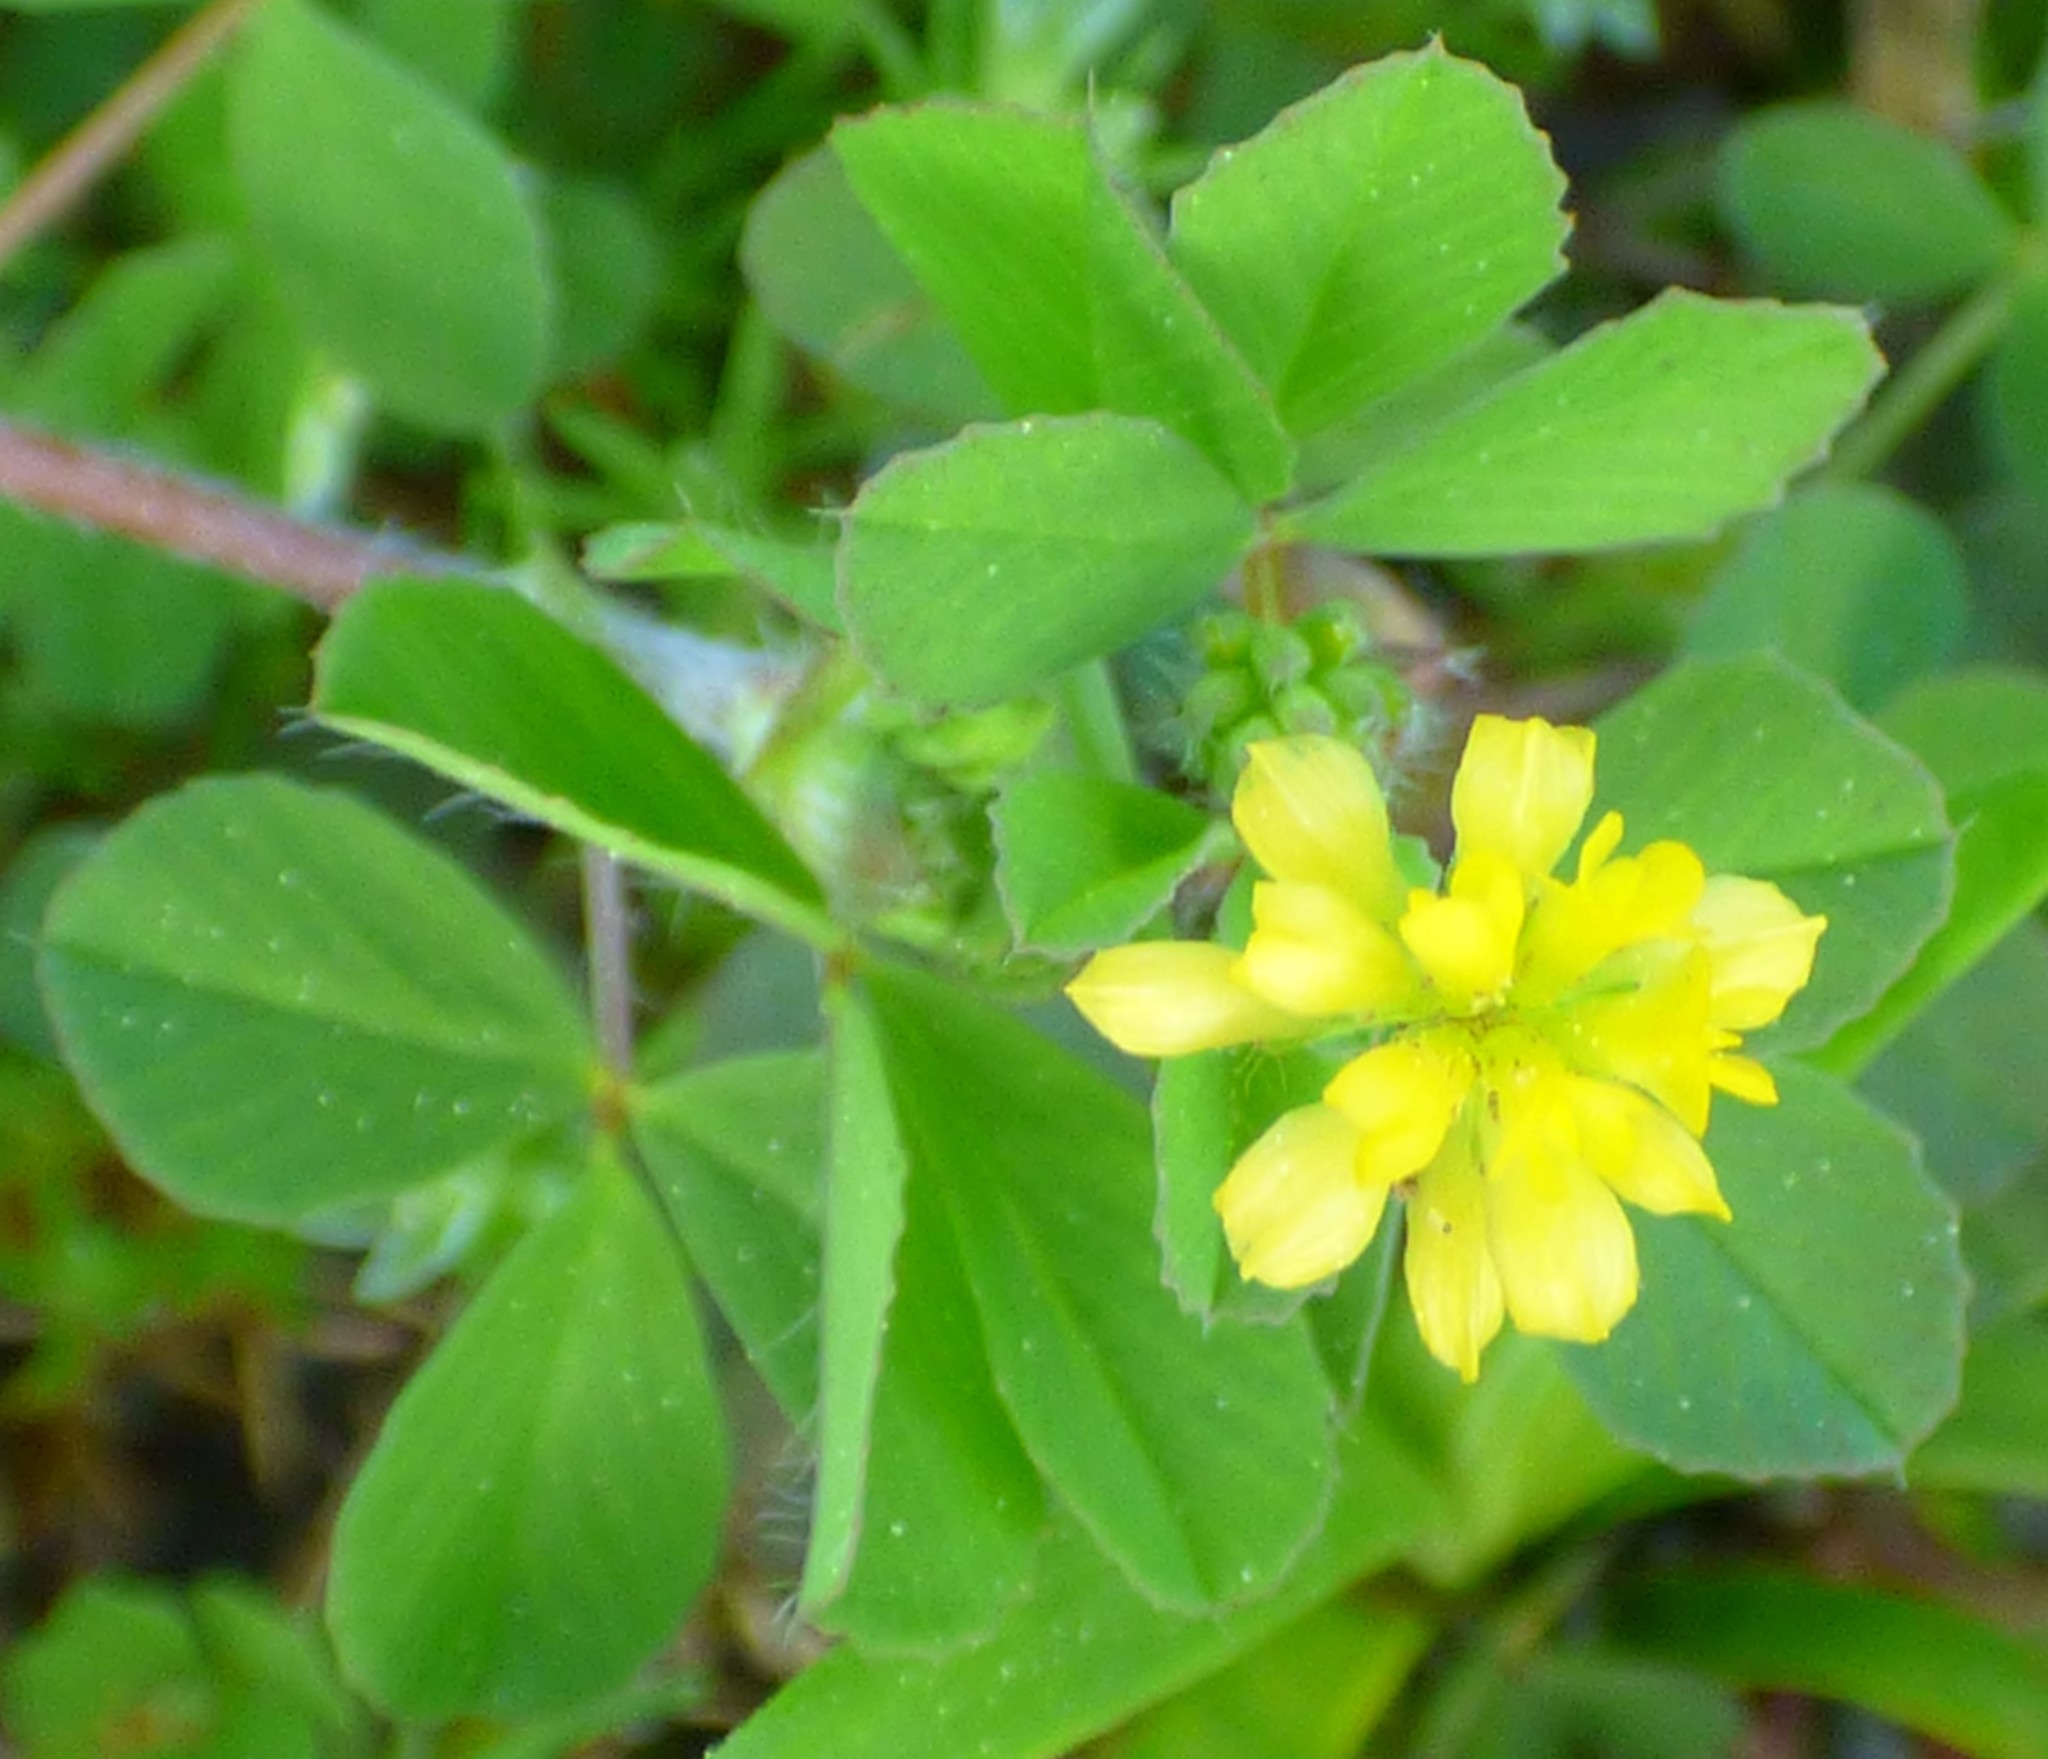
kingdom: Plantae
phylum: Tracheophyta
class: Magnoliopsida
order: Fabales
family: Fabaceae
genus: Trifolium
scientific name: Trifolium dubium
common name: Suckling clover
